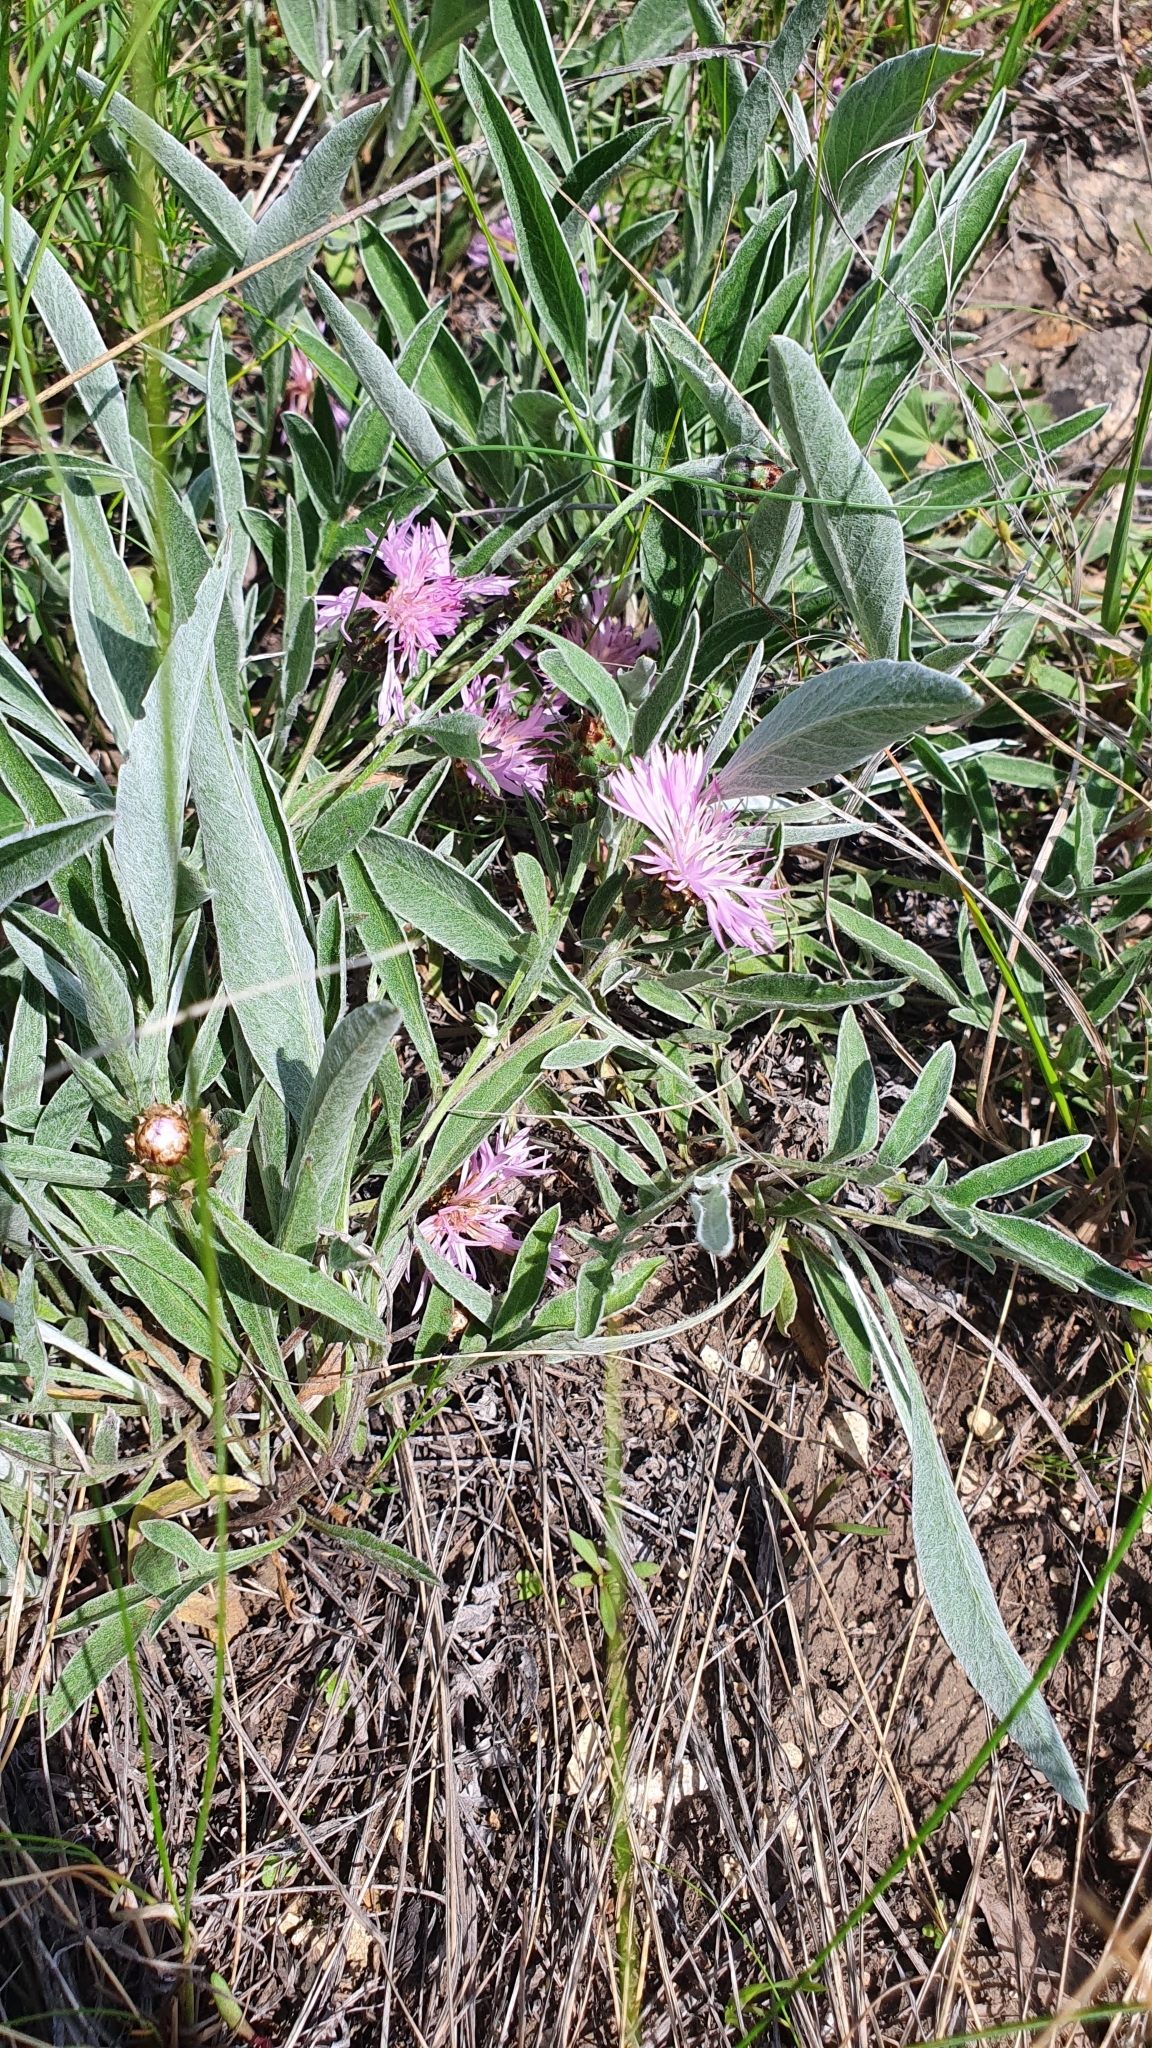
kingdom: Plantae
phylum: Tracheophyta
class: Magnoliopsida
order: Asterales
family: Asteraceae
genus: Psephellus
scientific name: Psephellus sumensis
